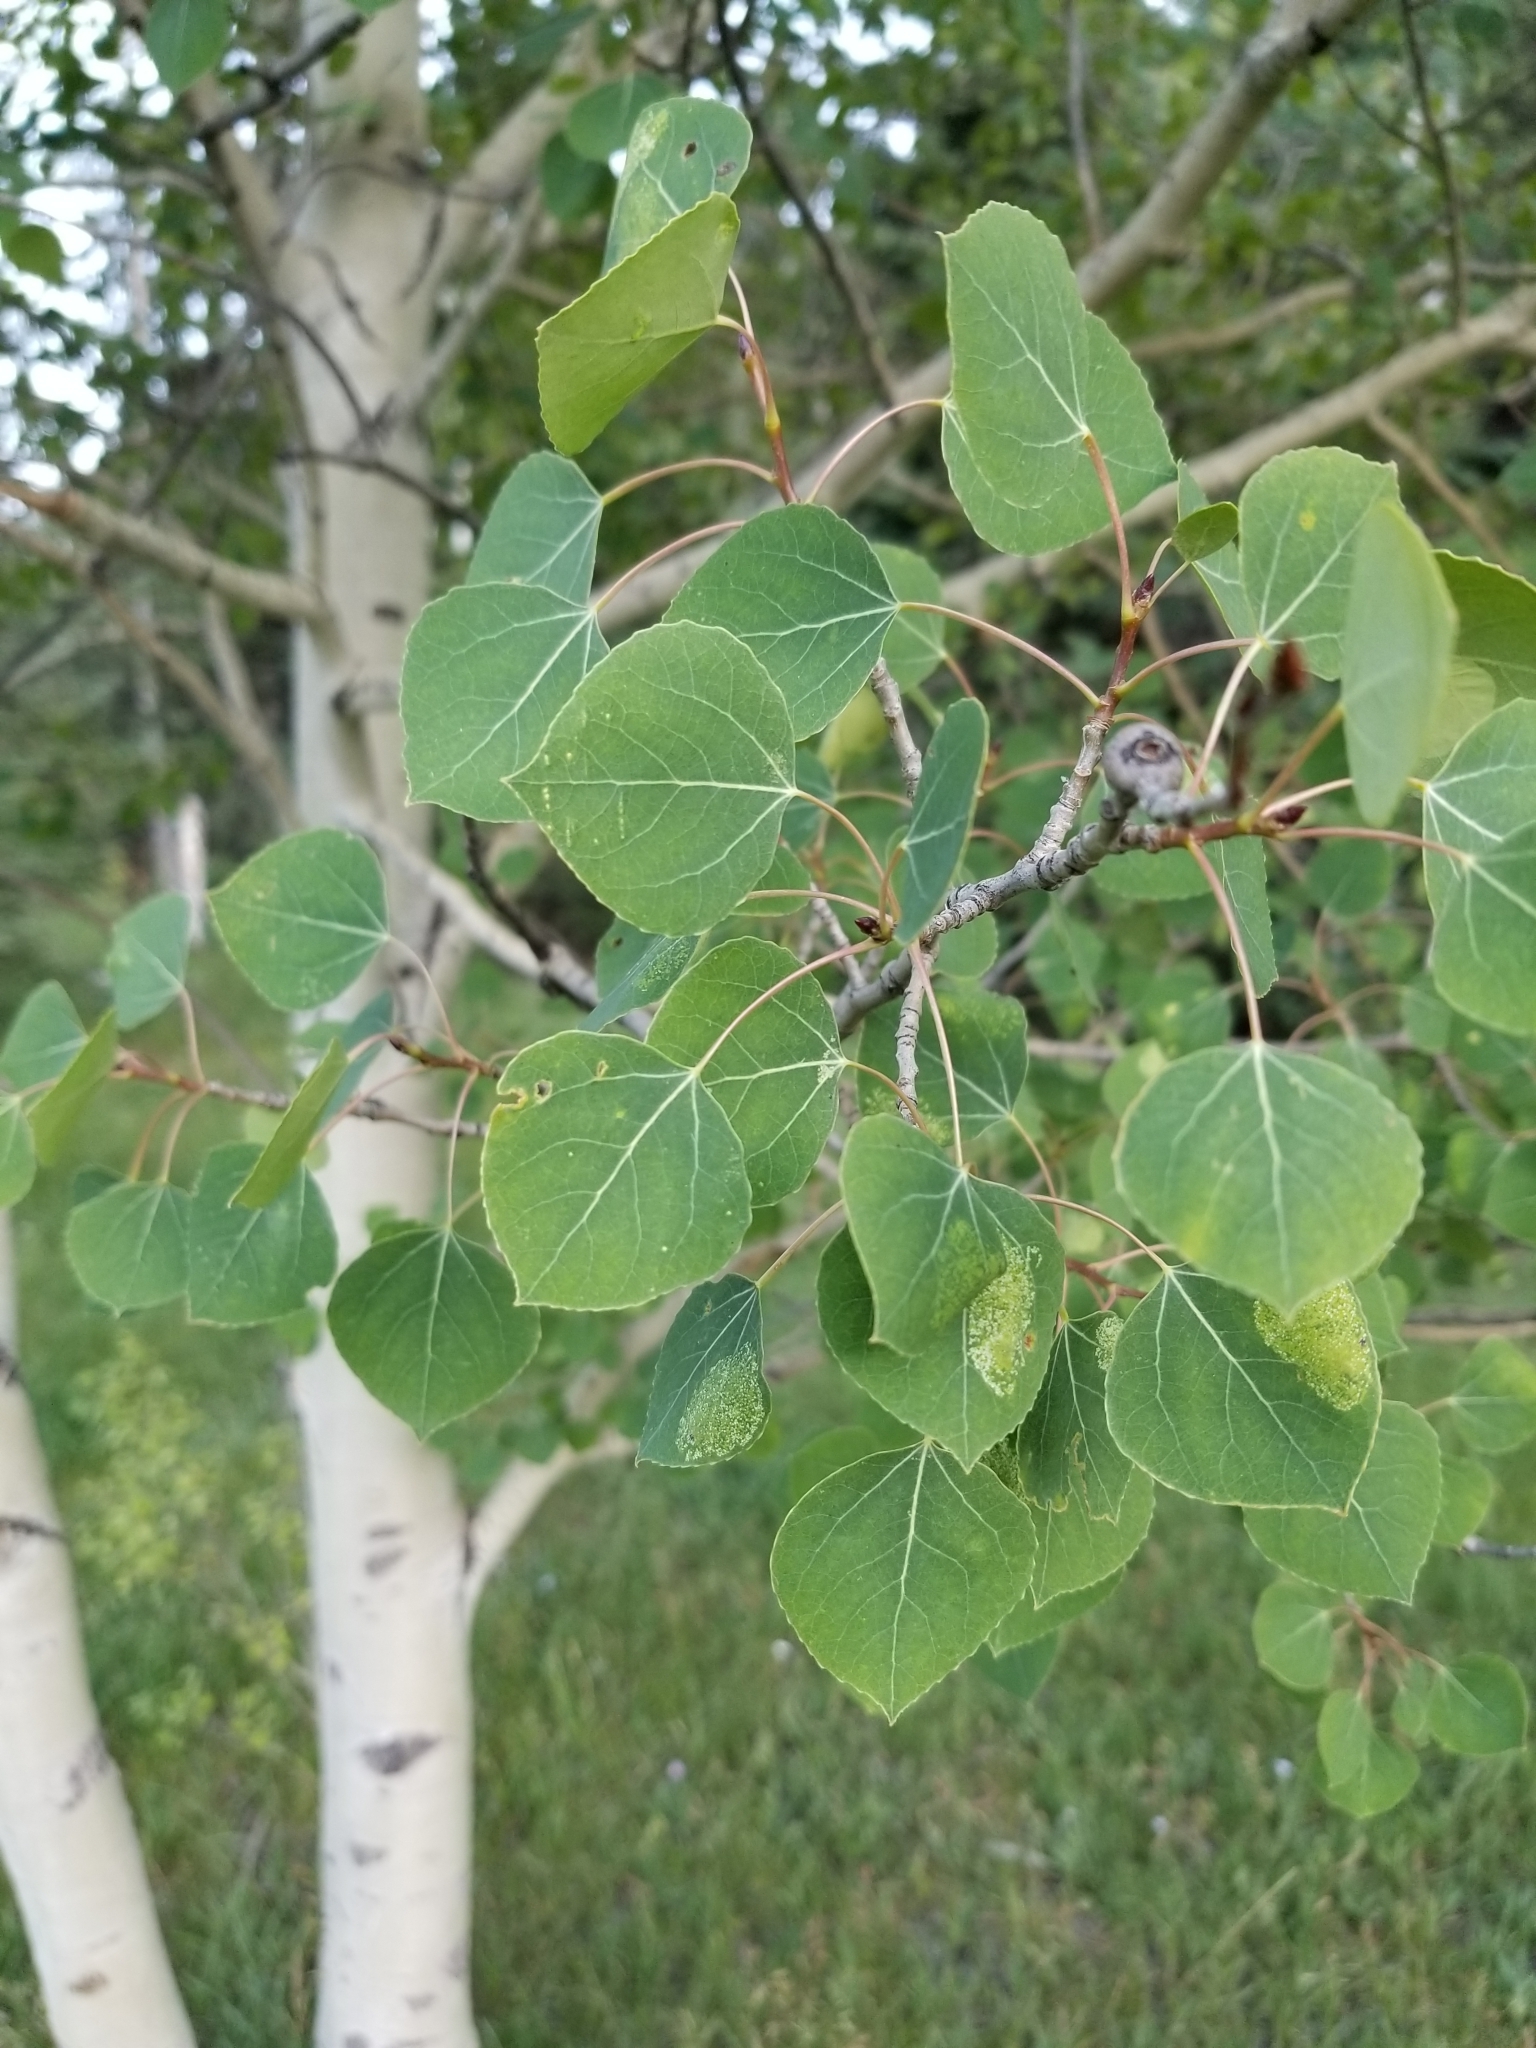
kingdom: Plantae
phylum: Tracheophyta
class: Magnoliopsida
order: Malpighiales
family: Salicaceae
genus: Populus
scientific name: Populus tremuloides
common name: Quaking aspen
